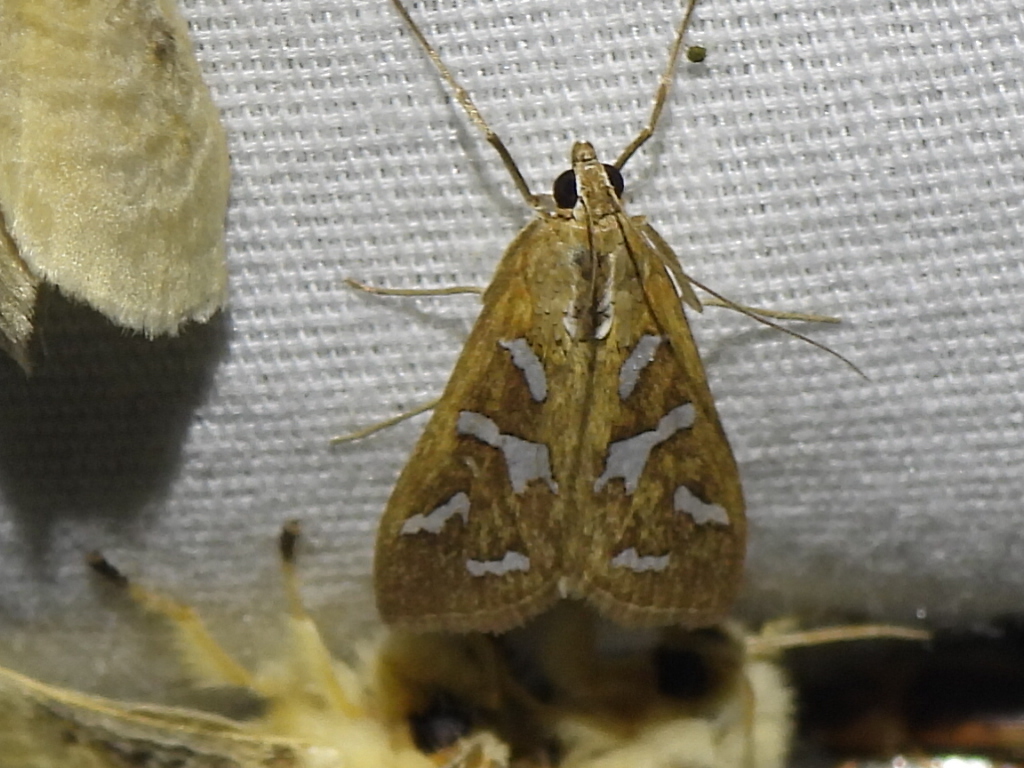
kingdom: Animalia
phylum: Arthropoda
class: Insecta
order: Lepidoptera
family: Crambidae
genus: Diastictis
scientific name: Diastictis fracturalis
